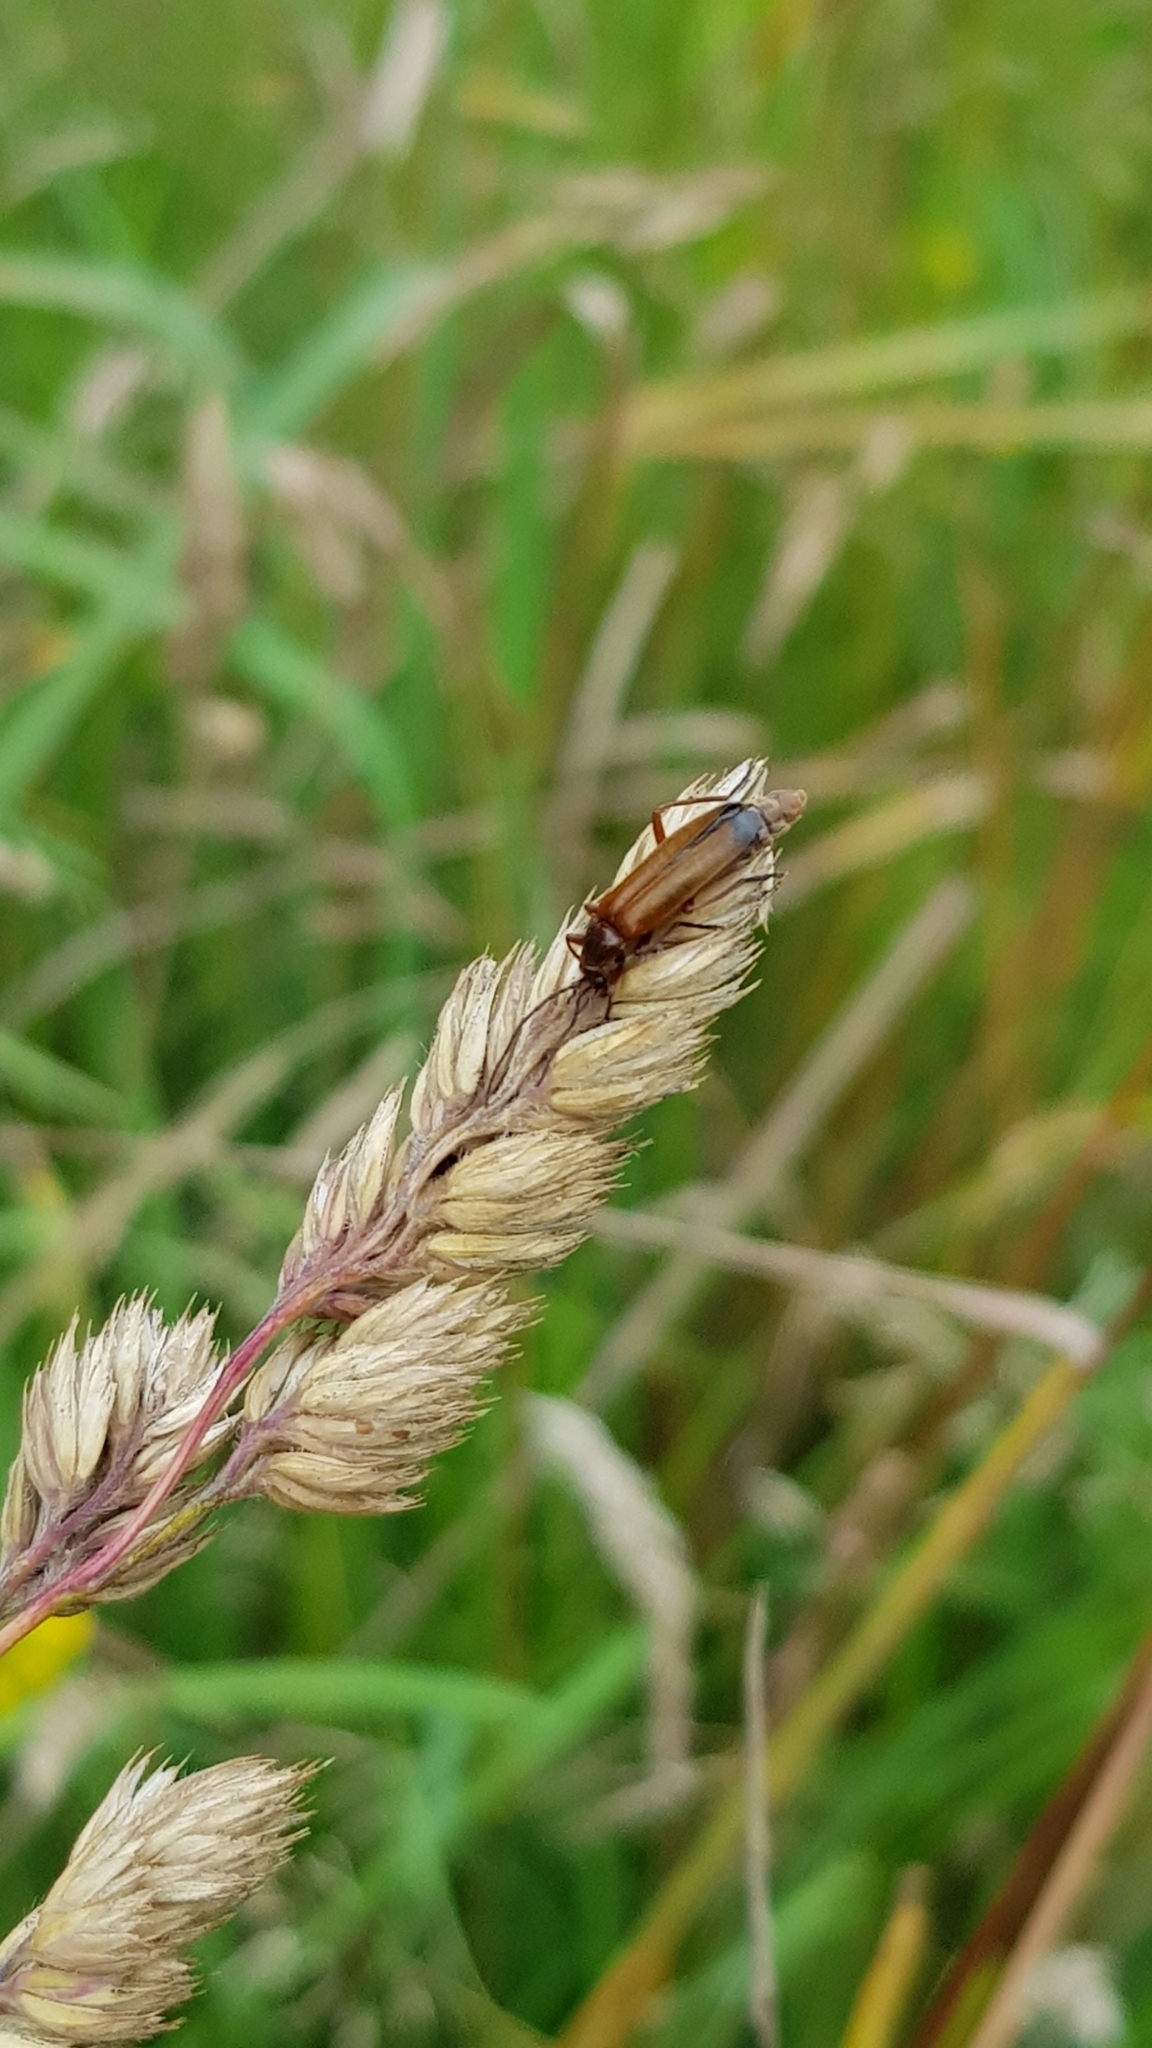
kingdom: Animalia
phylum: Arthropoda
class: Insecta
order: Coleoptera
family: Cantharidae
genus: Rhagonycha
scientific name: Rhagonycha fulva
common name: Common red soldier beetle
